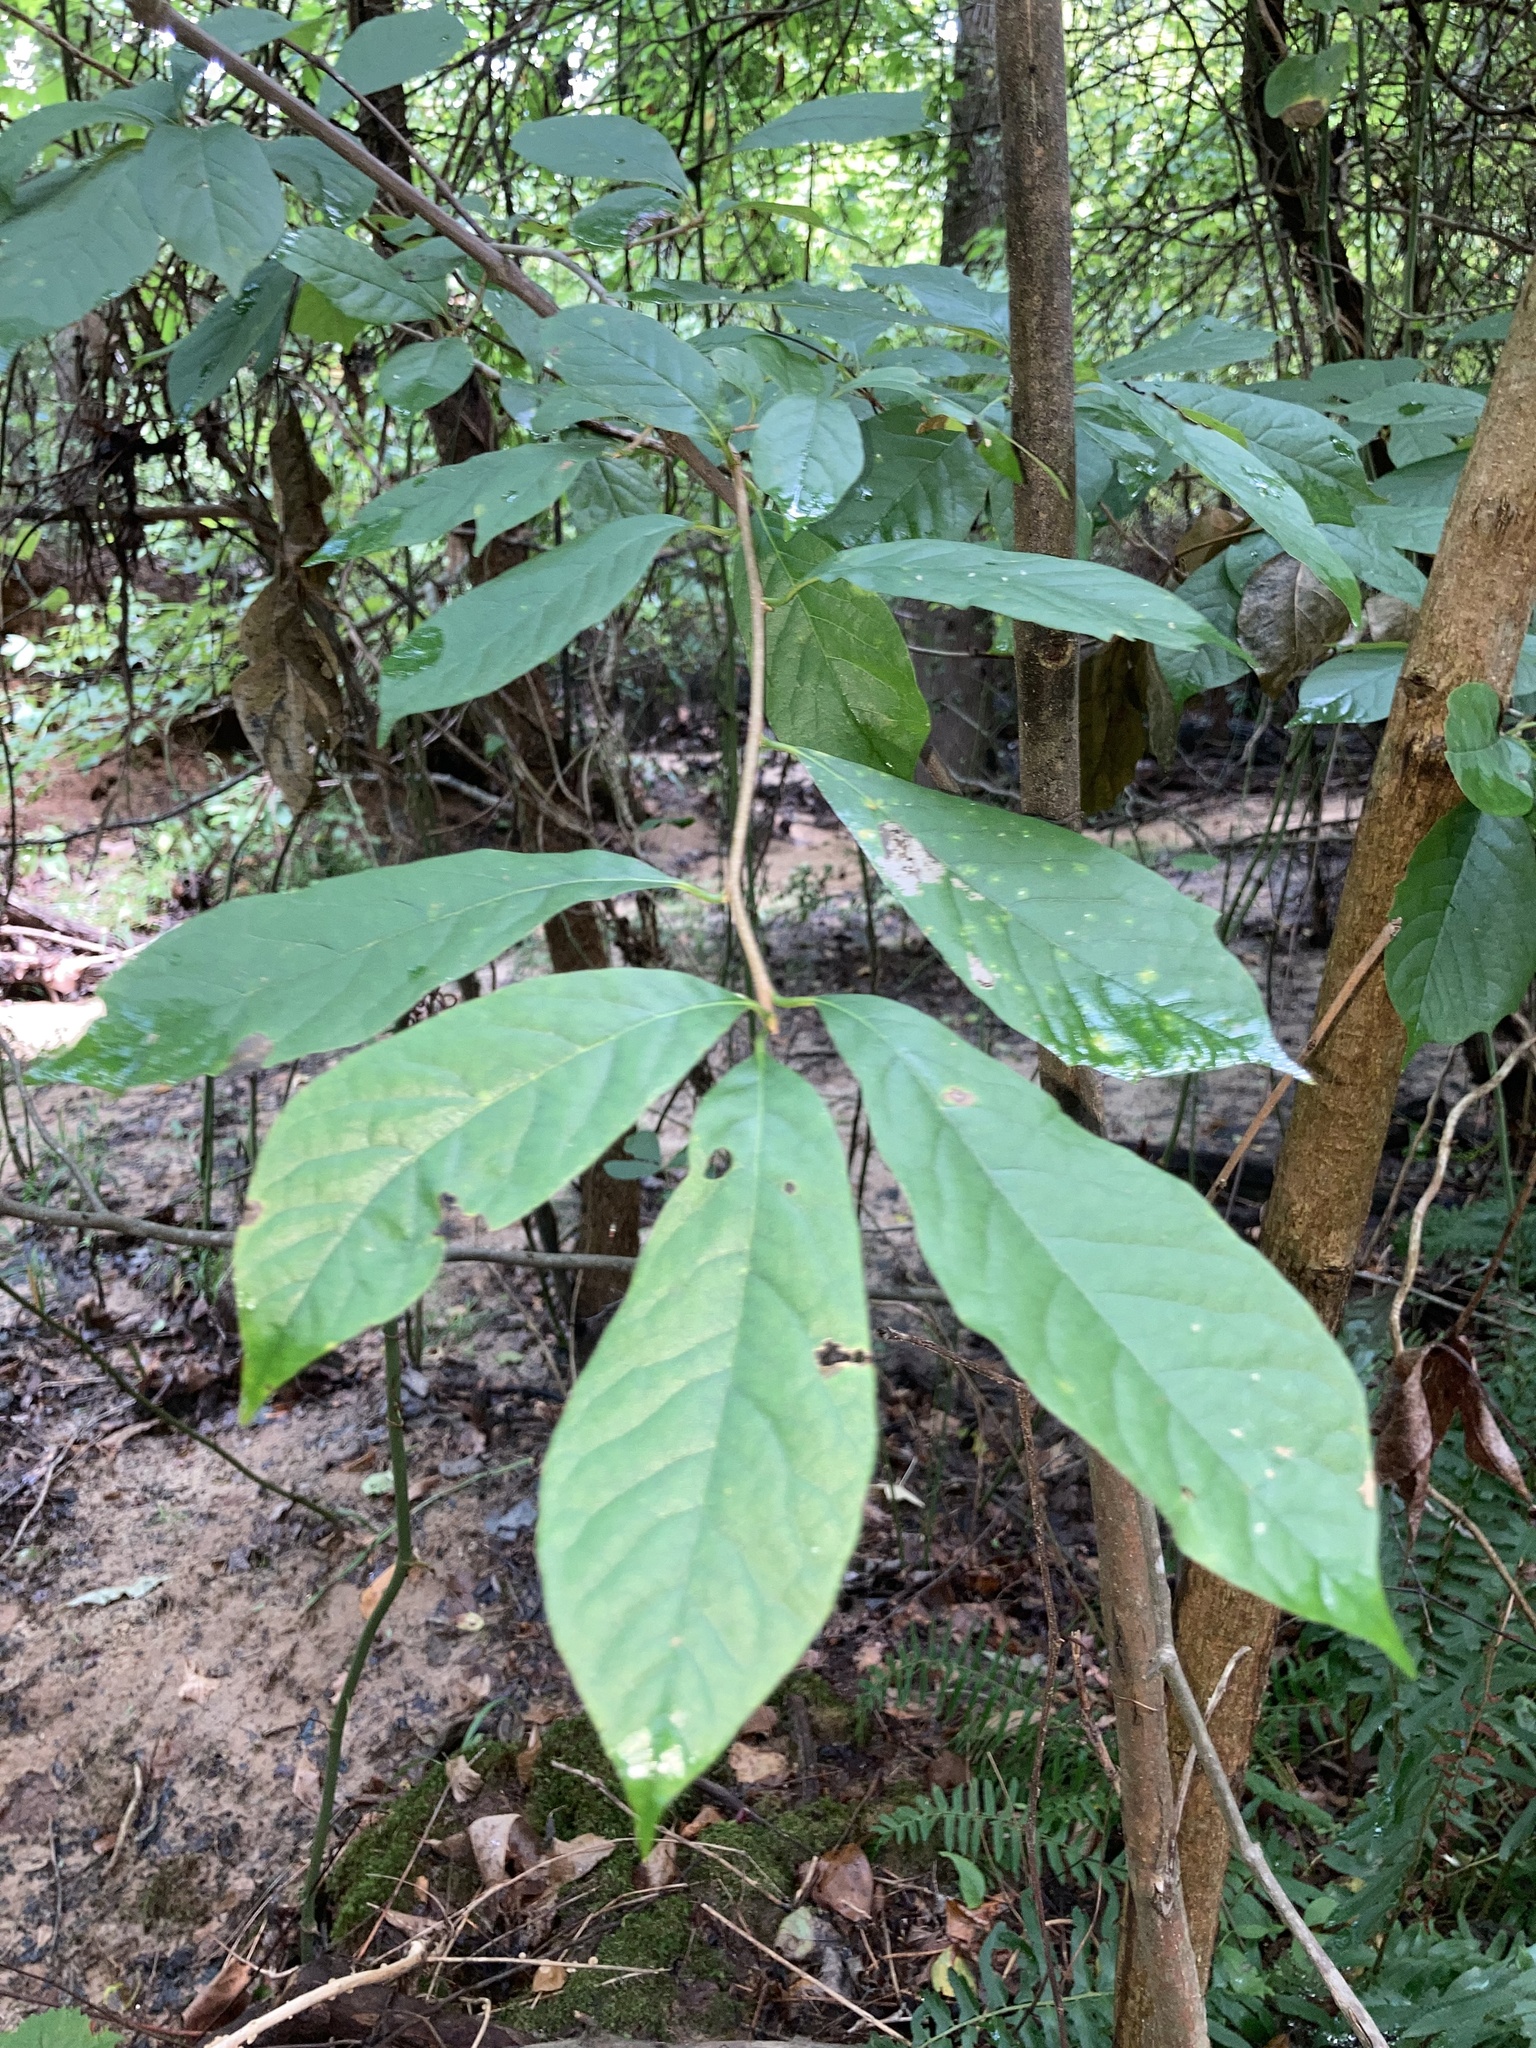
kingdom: Plantae
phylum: Tracheophyta
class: Magnoliopsida
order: Cornales
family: Nyssaceae
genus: Nyssa
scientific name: Nyssa sylvatica
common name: Black tupelo
